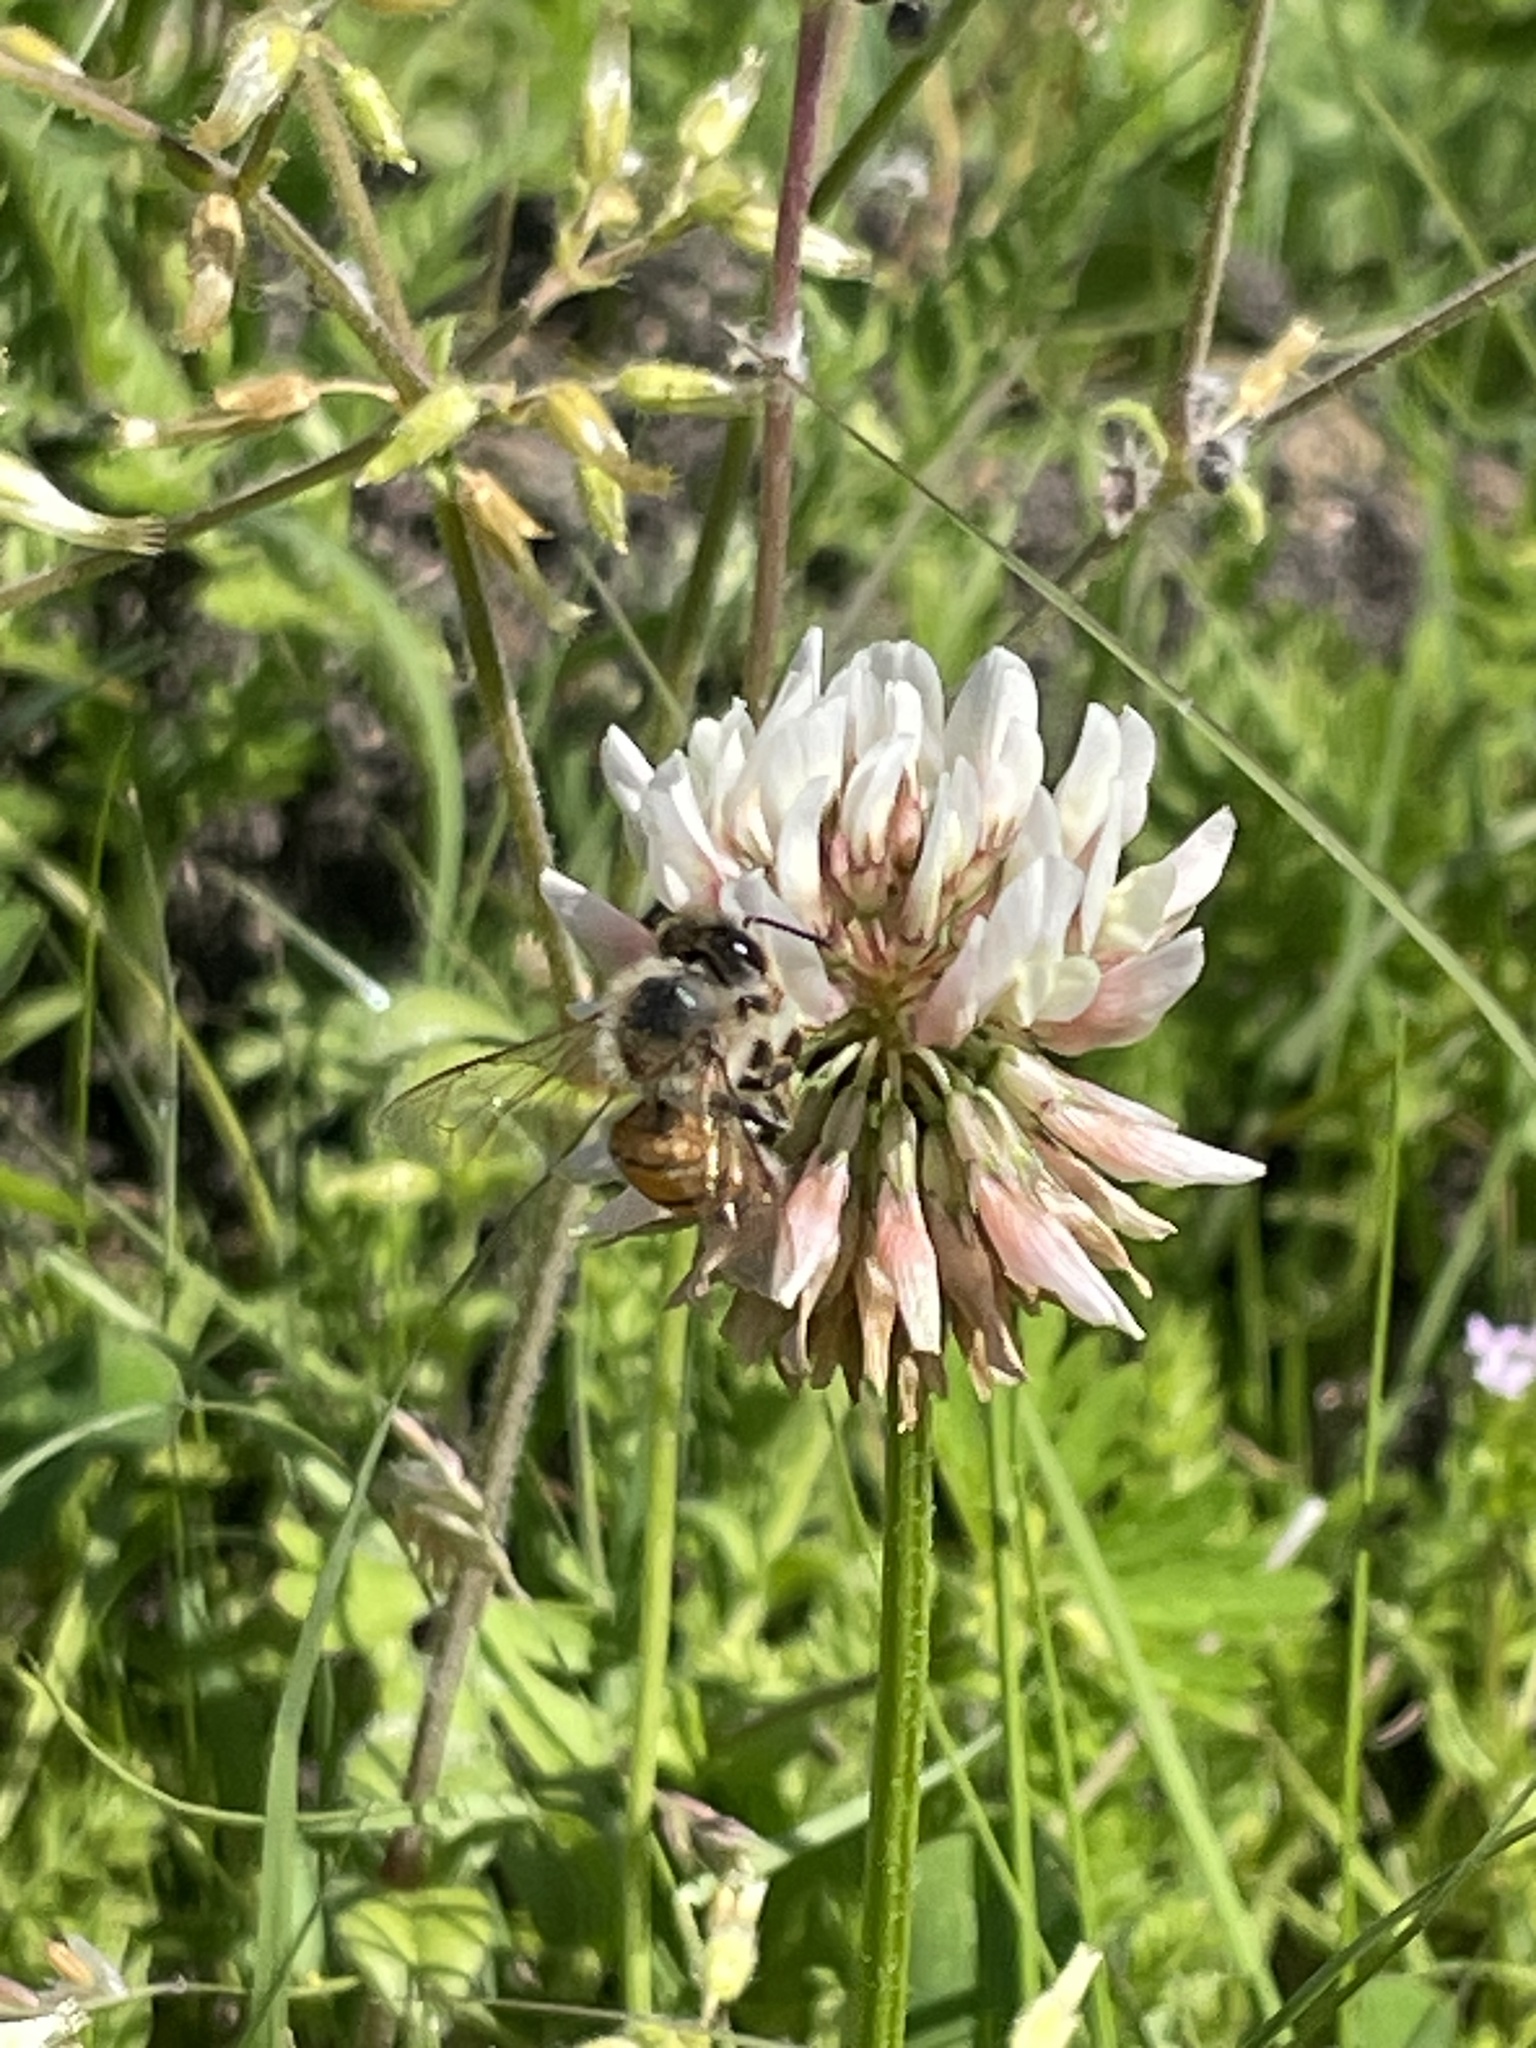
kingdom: Animalia
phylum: Arthropoda
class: Insecta
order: Hymenoptera
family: Apidae
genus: Apis
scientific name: Apis mellifera
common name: Honey bee
